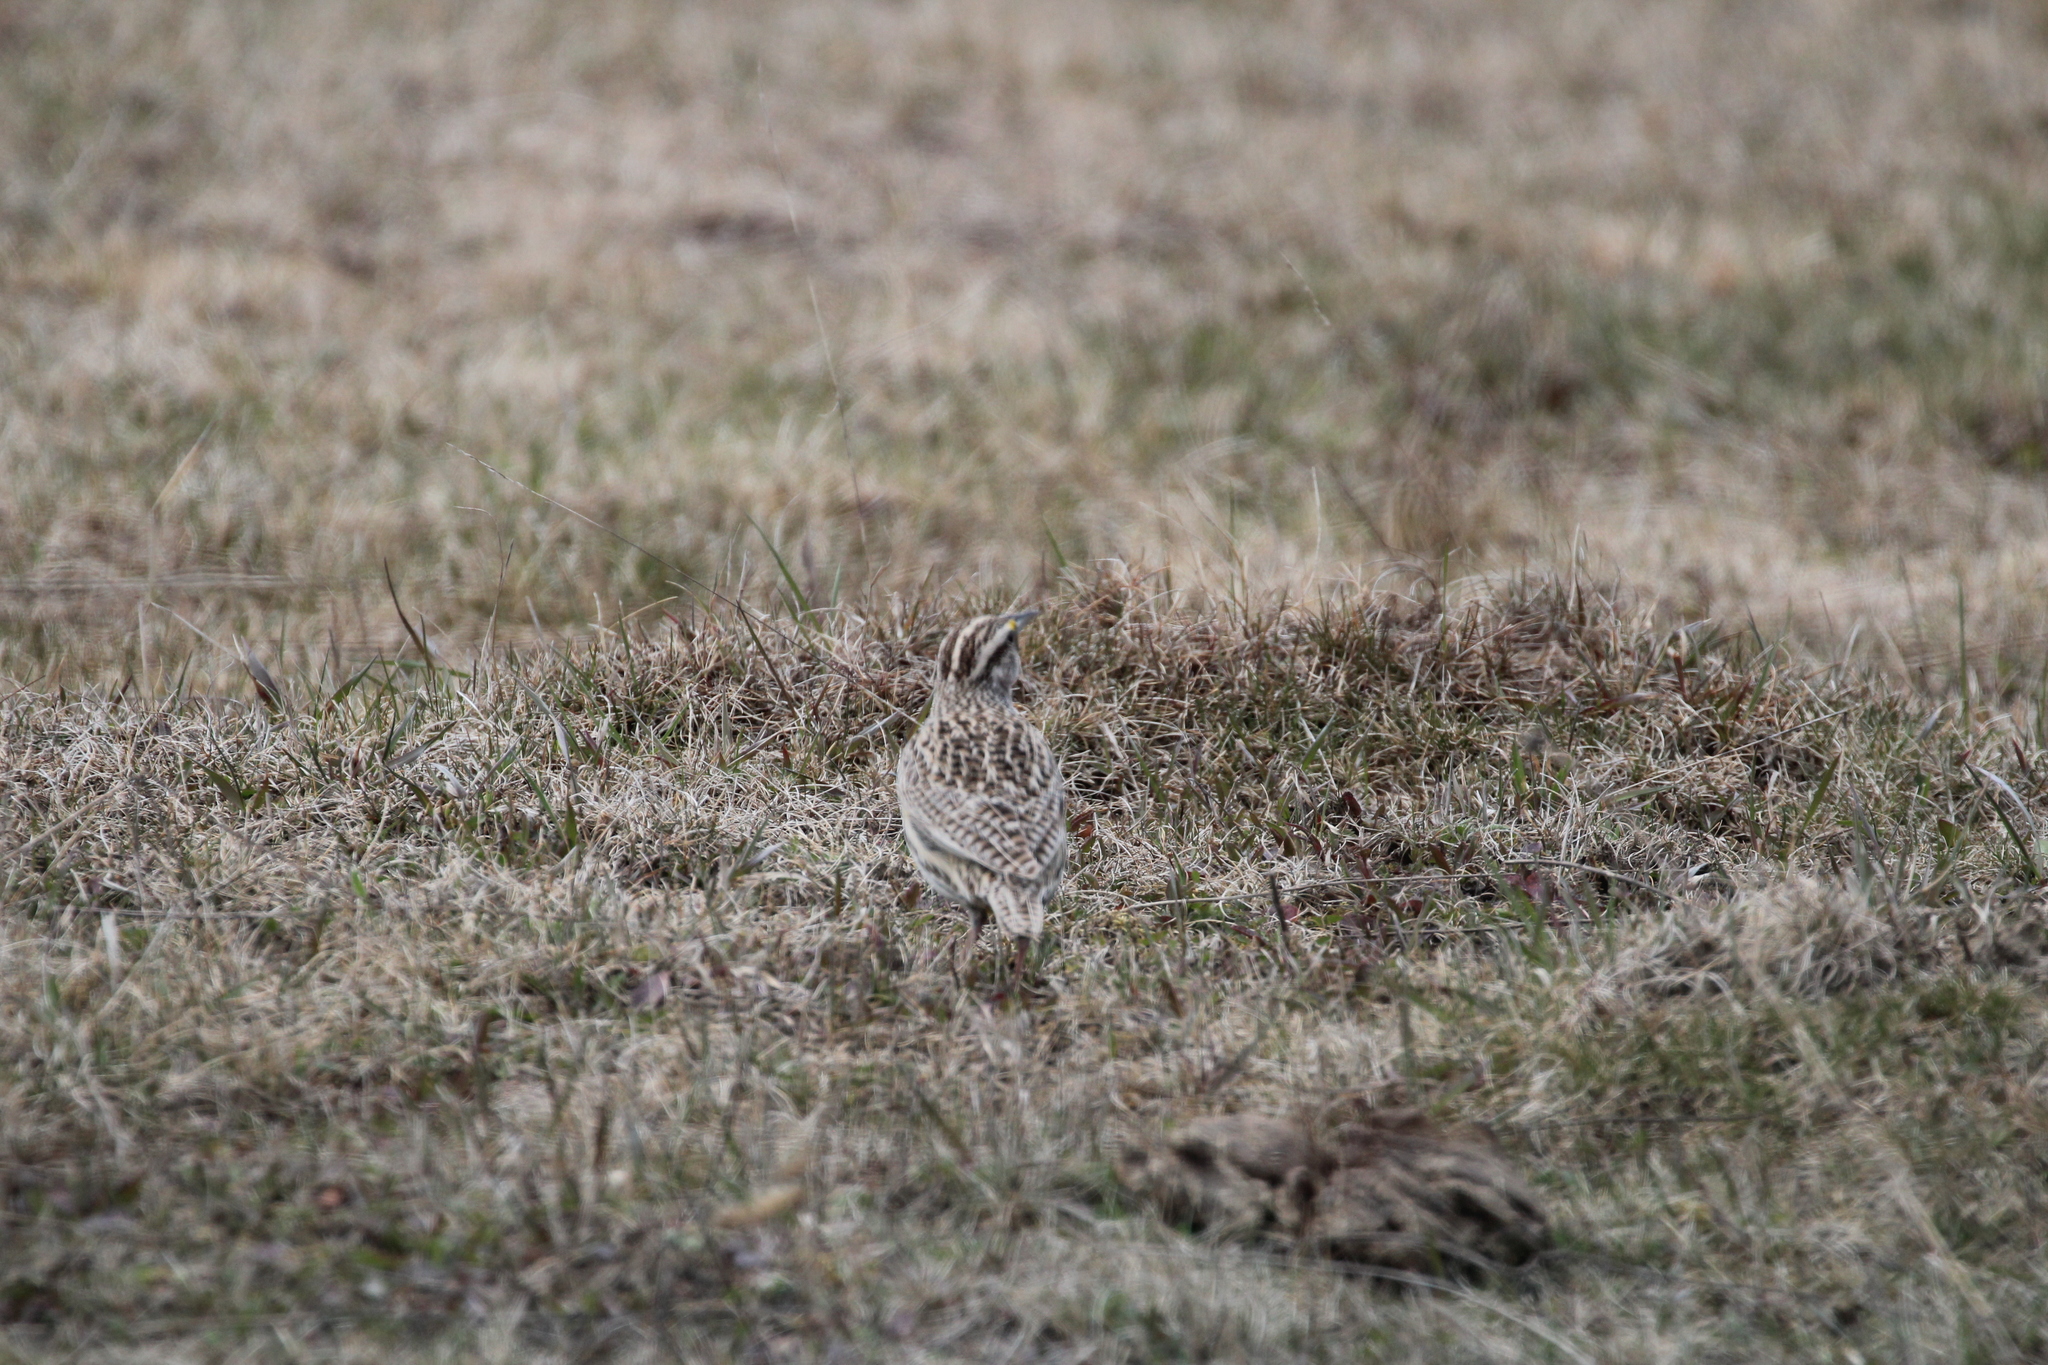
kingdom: Animalia
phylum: Chordata
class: Aves
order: Passeriformes
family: Icteridae
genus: Sturnella
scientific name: Sturnella neglecta
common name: Western meadowlark
